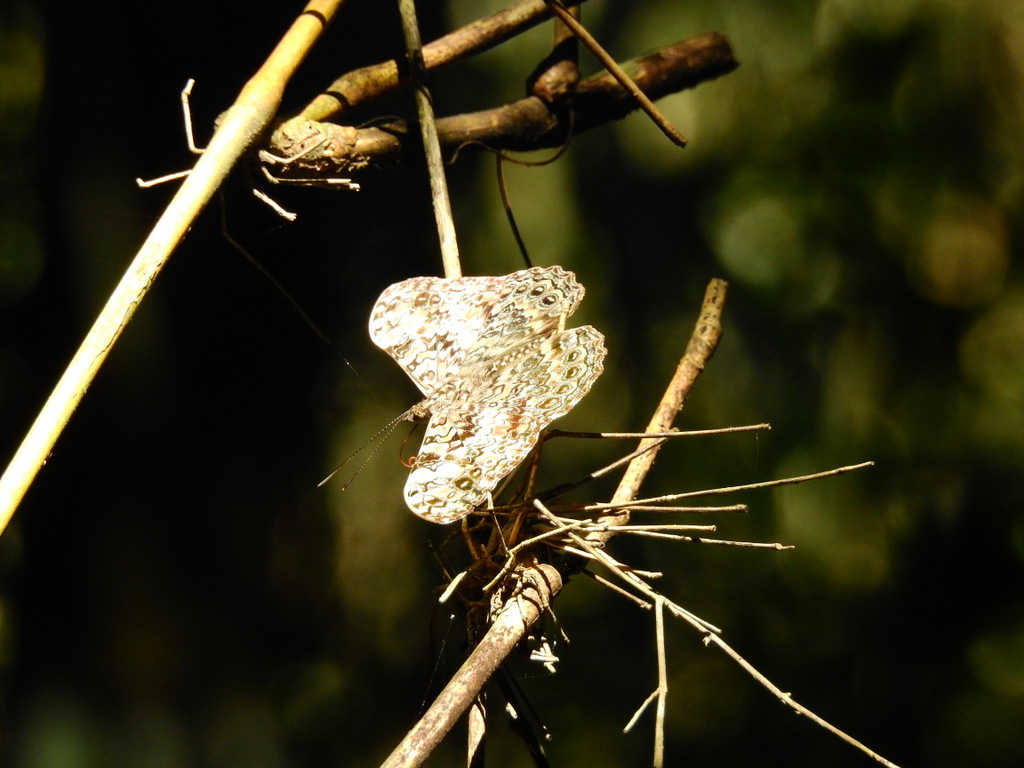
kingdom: Animalia
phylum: Arthropoda
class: Insecta
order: Lepidoptera
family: Nymphalidae
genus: Hamadryas
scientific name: Hamadryas epinome
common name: Epinome cracker
